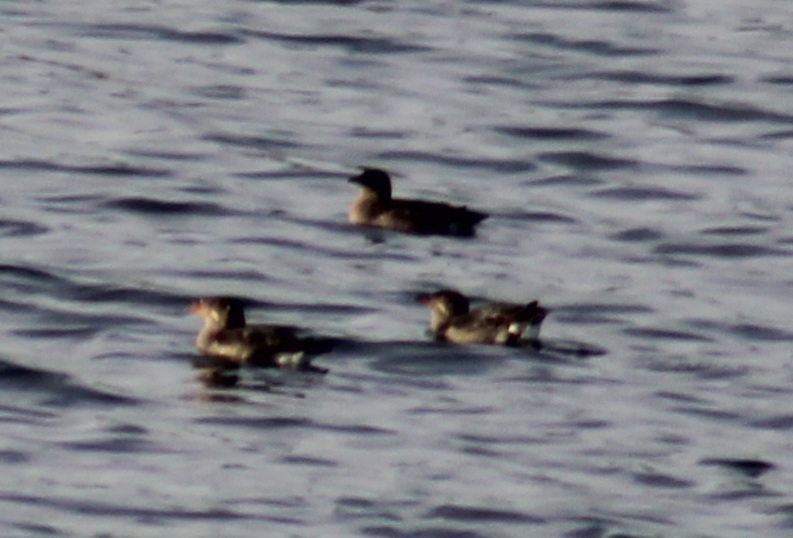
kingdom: Animalia
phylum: Chordata
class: Aves
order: Charadriiformes
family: Alcidae
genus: Cerorhinca
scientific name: Cerorhinca monocerata
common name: Rhinoceros auklet
